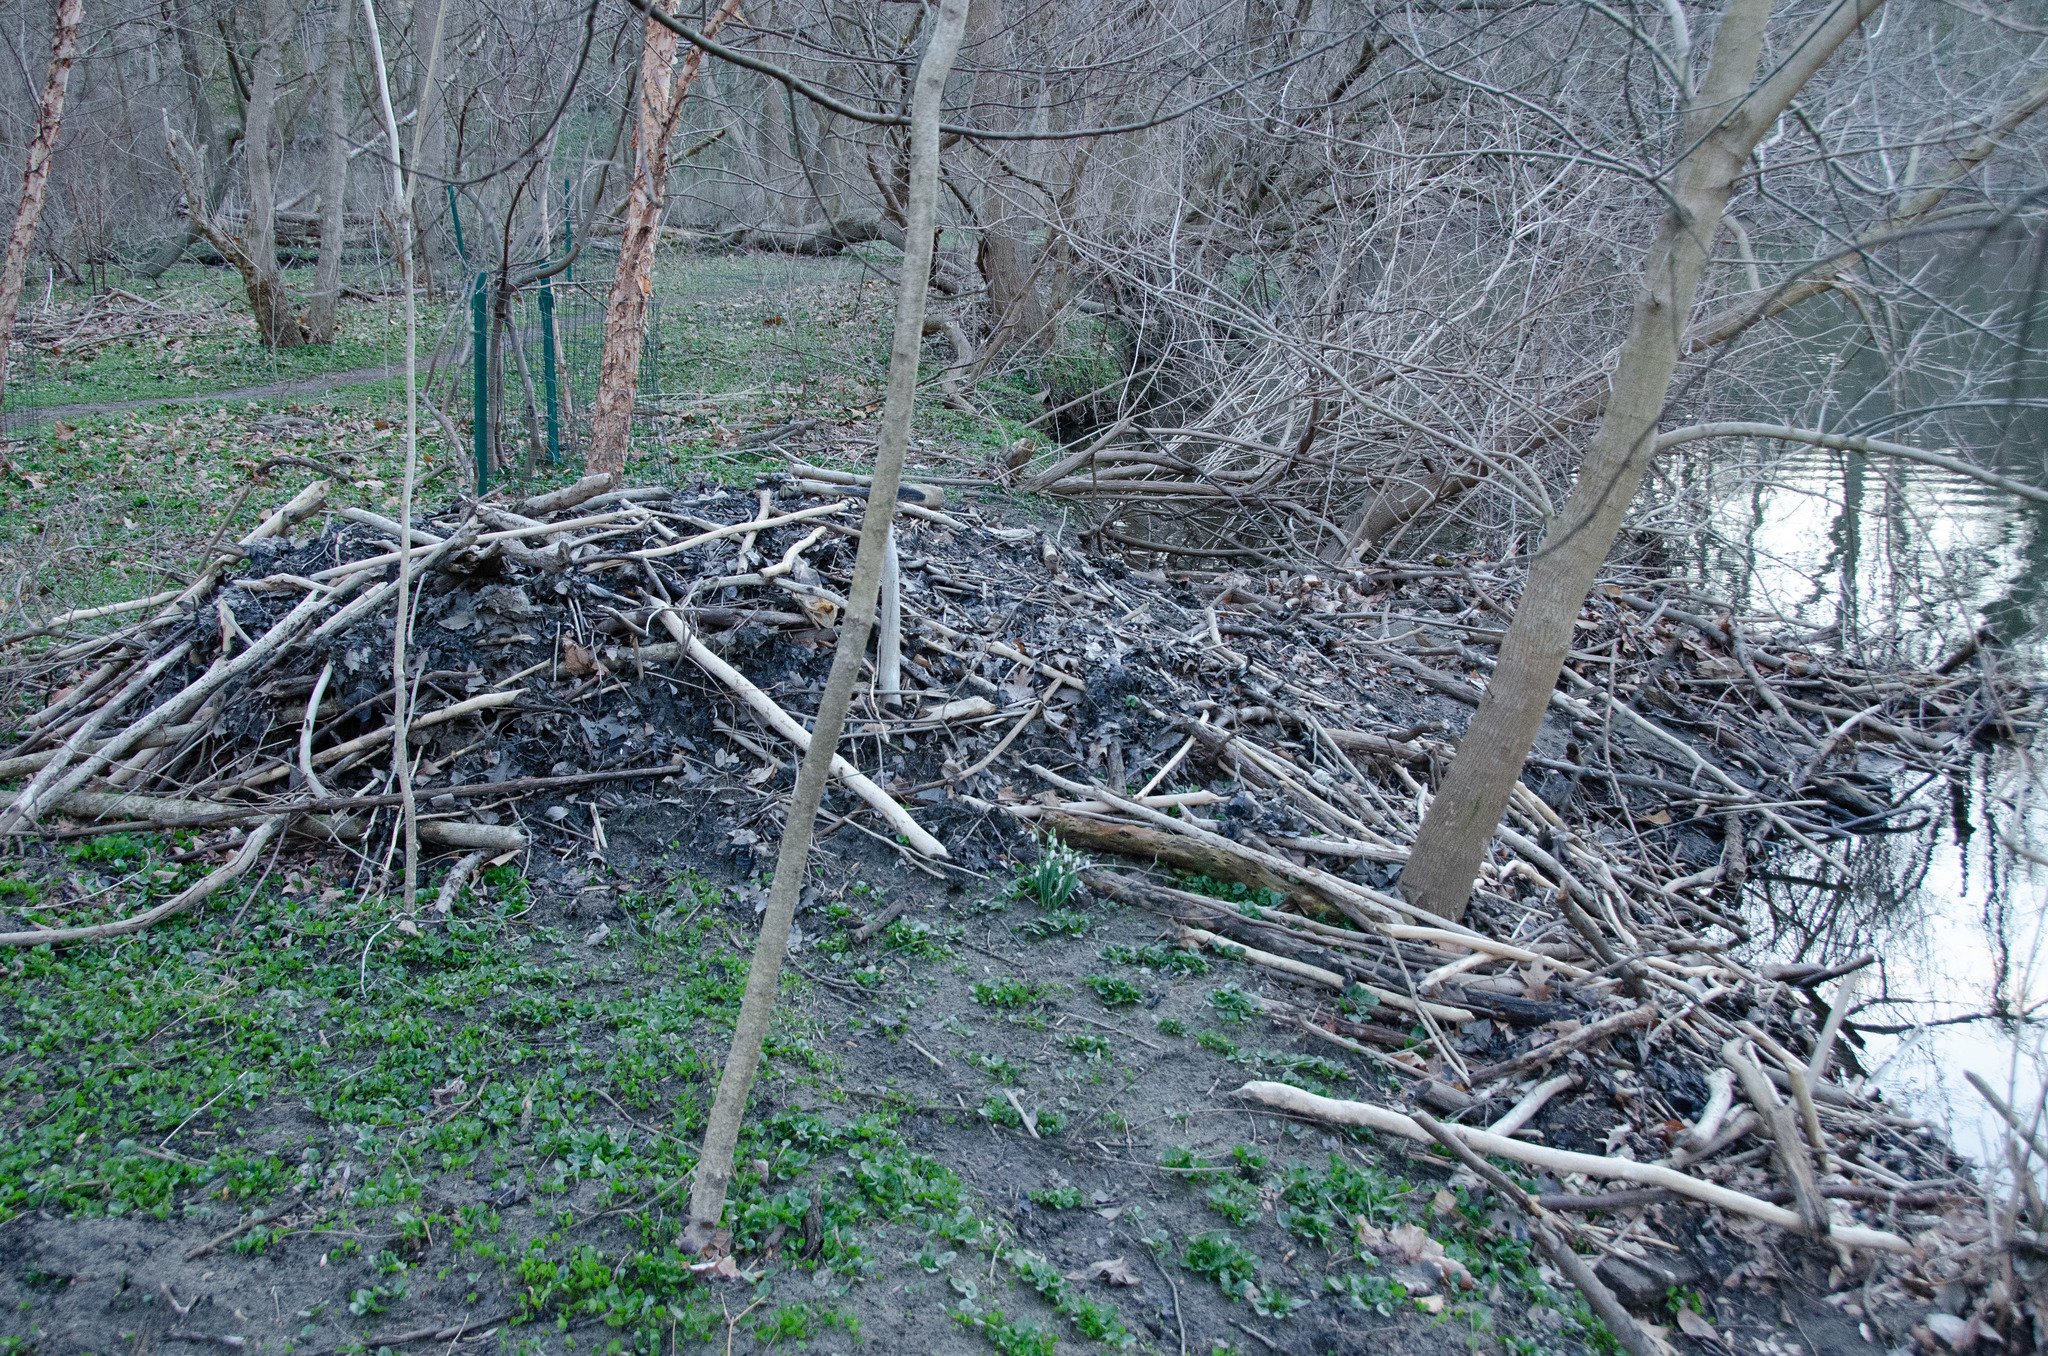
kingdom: Animalia
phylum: Chordata
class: Mammalia
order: Rodentia
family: Castoridae
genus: Castor
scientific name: Castor canadensis
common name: American beaver
